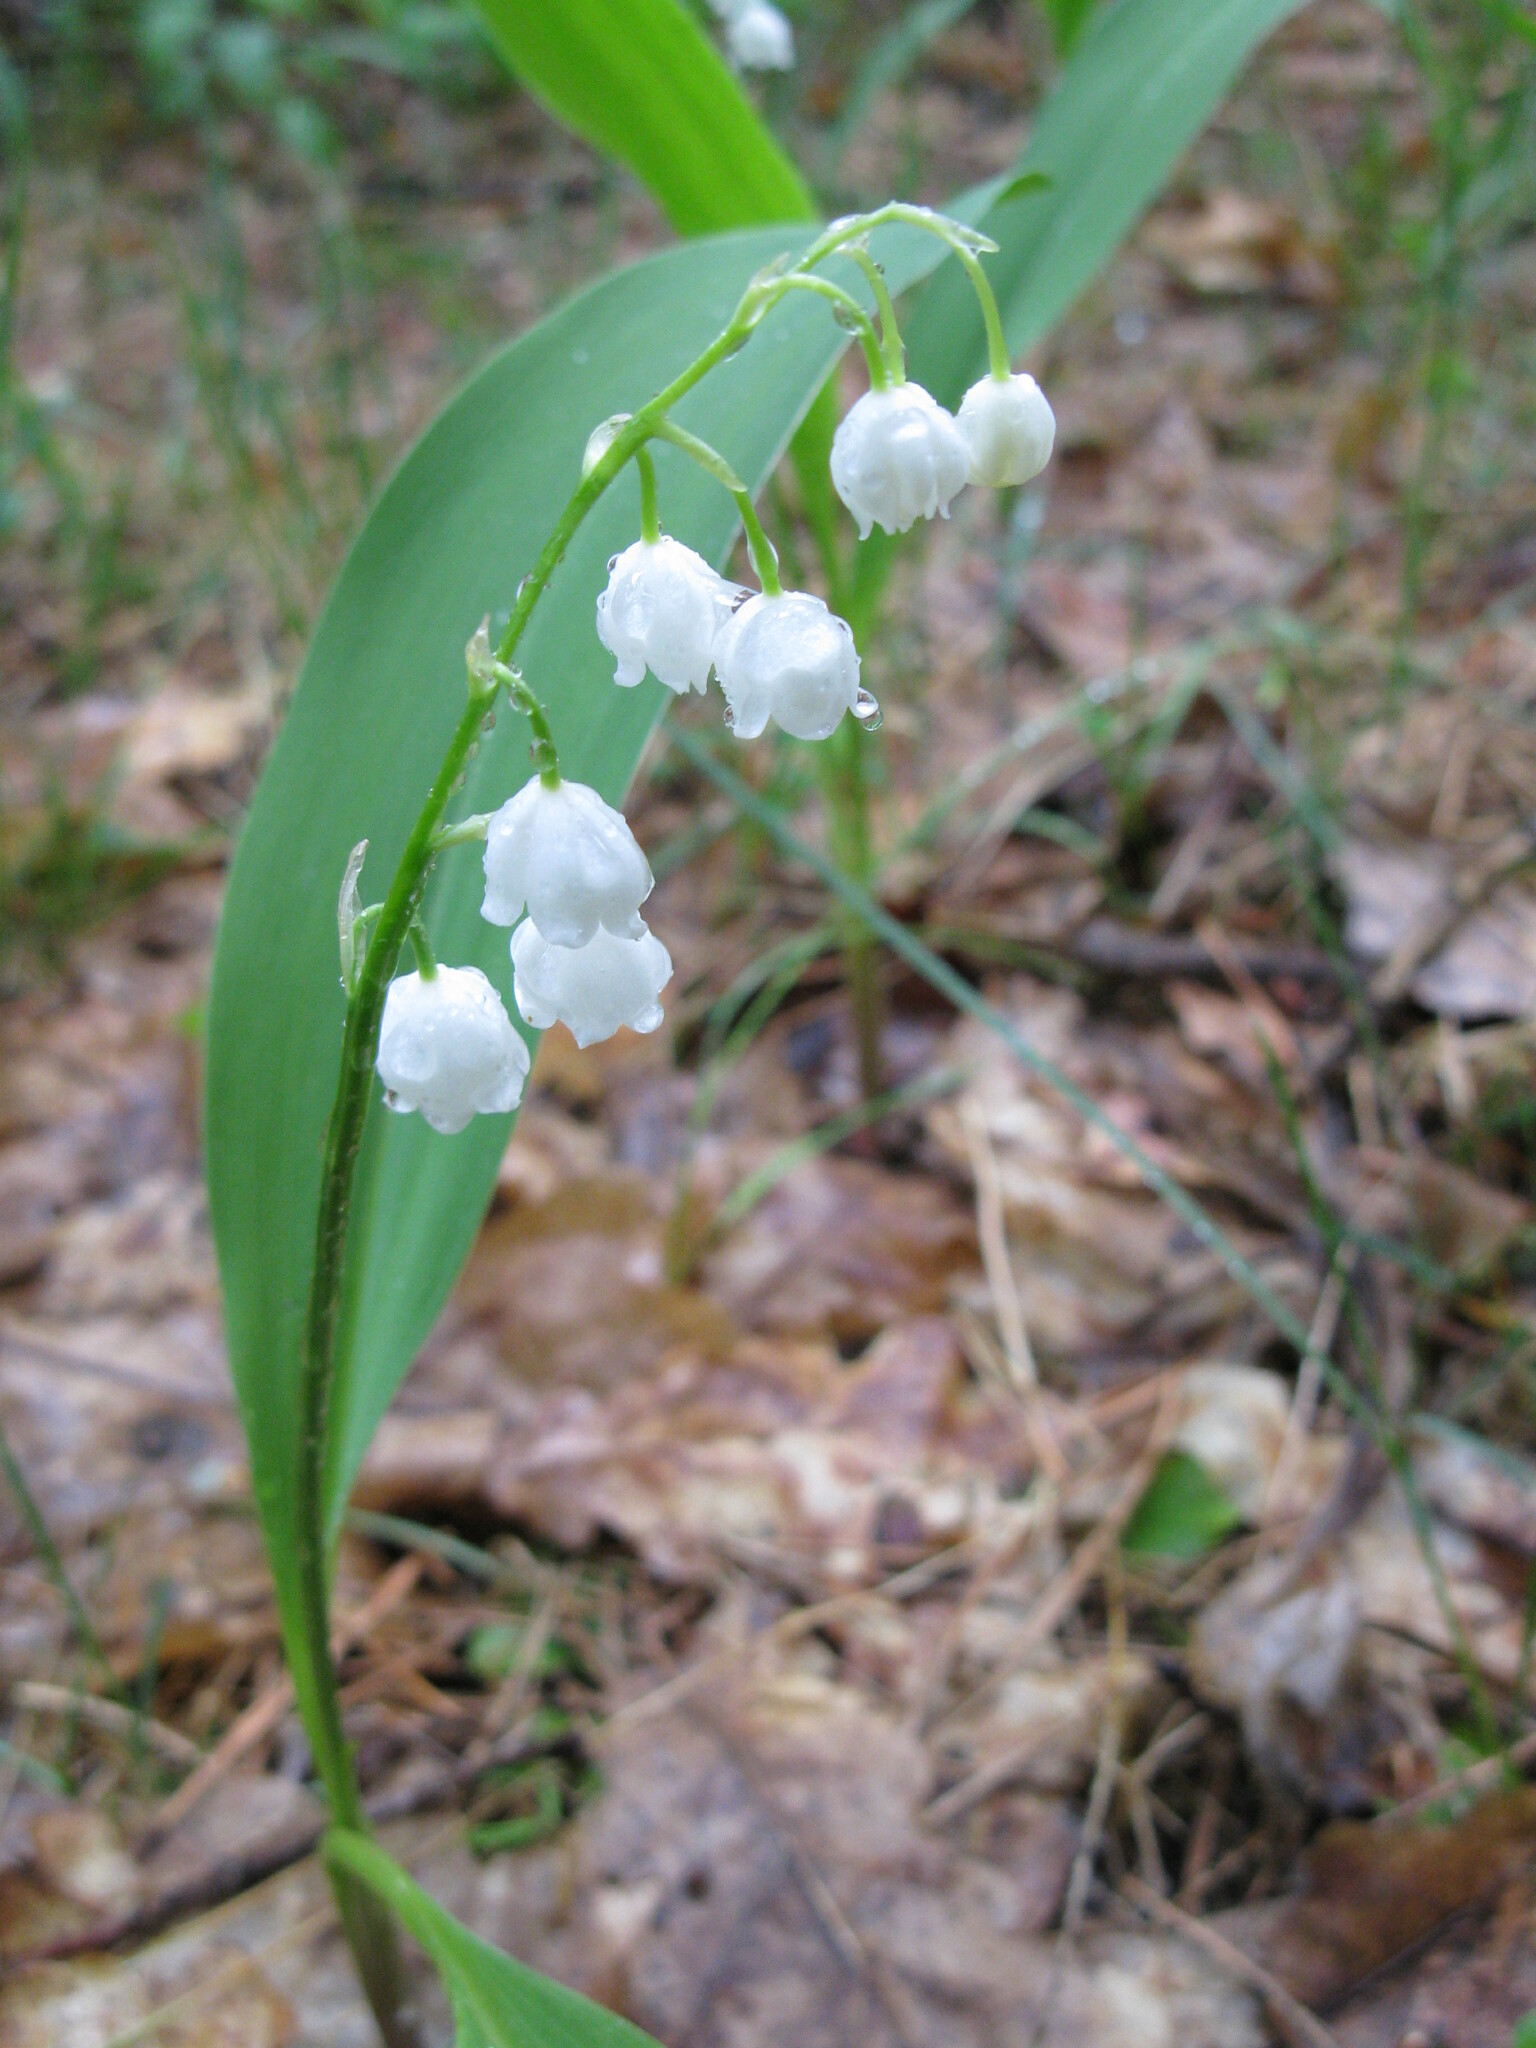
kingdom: Plantae
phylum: Tracheophyta
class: Liliopsida
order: Asparagales
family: Asparagaceae
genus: Convallaria
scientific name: Convallaria majalis
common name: Lily-of-the-valley
